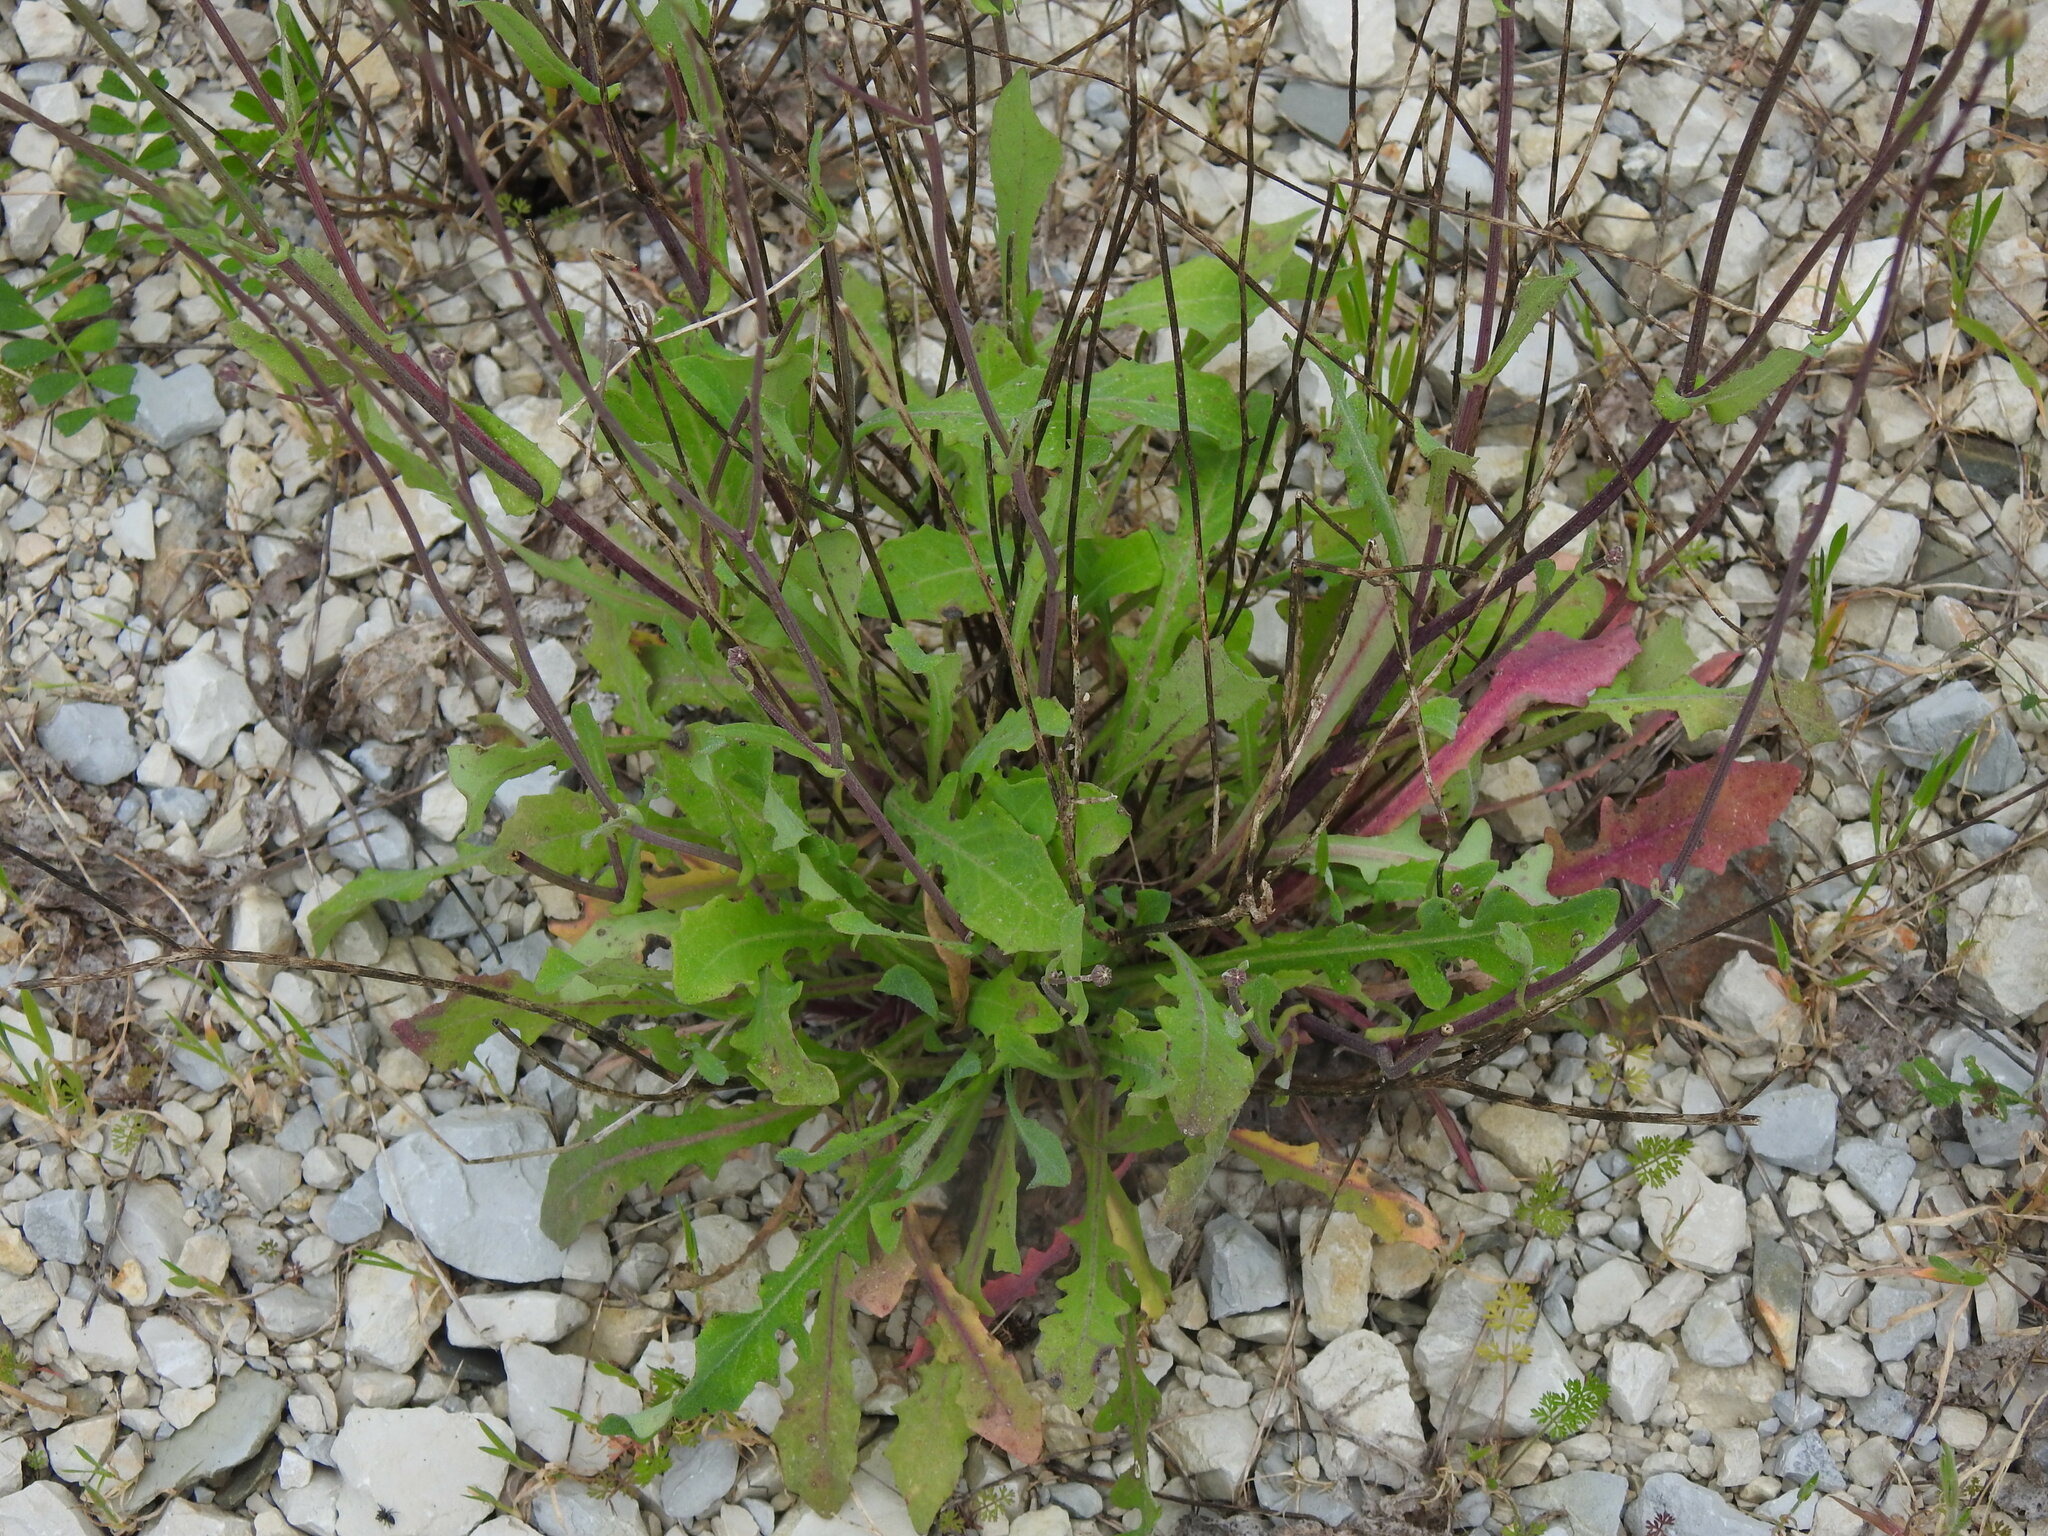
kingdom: Plantae
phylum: Tracheophyta
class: Magnoliopsida
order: Asterales
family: Asteraceae
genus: Reichardia
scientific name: Reichardia picroides
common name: Common brighteyes
